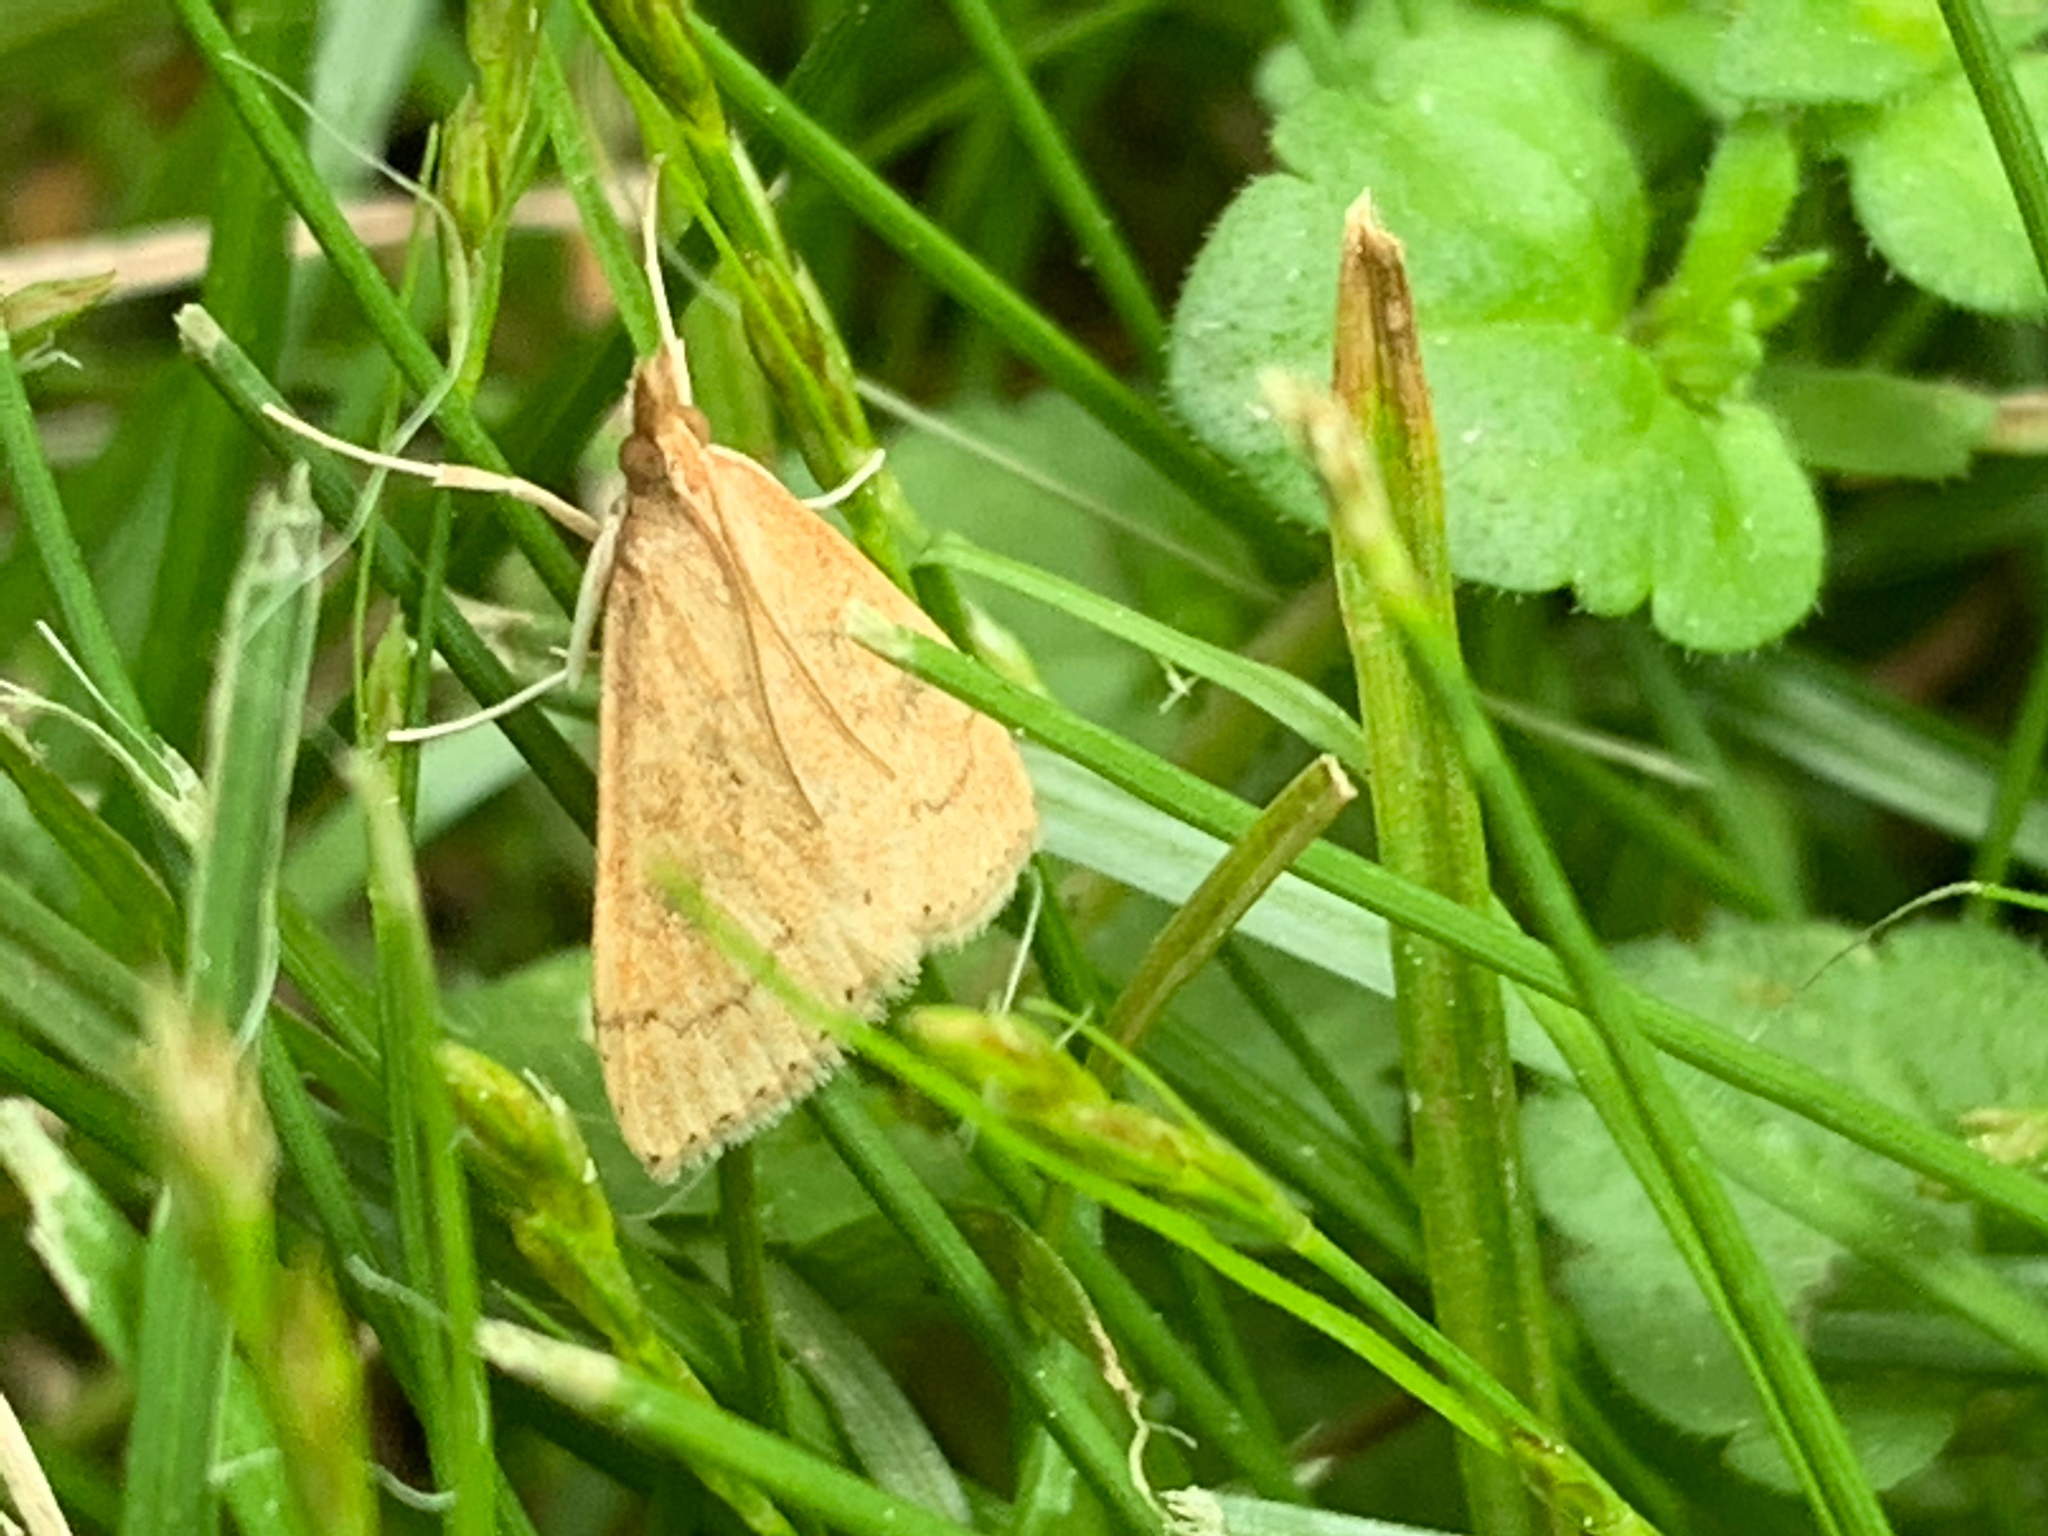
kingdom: Animalia
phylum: Arthropoda
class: Insecta
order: Lepidoptera
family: Crambidae
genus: Udea
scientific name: Udea rubigalis
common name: Celery leaftier moth
